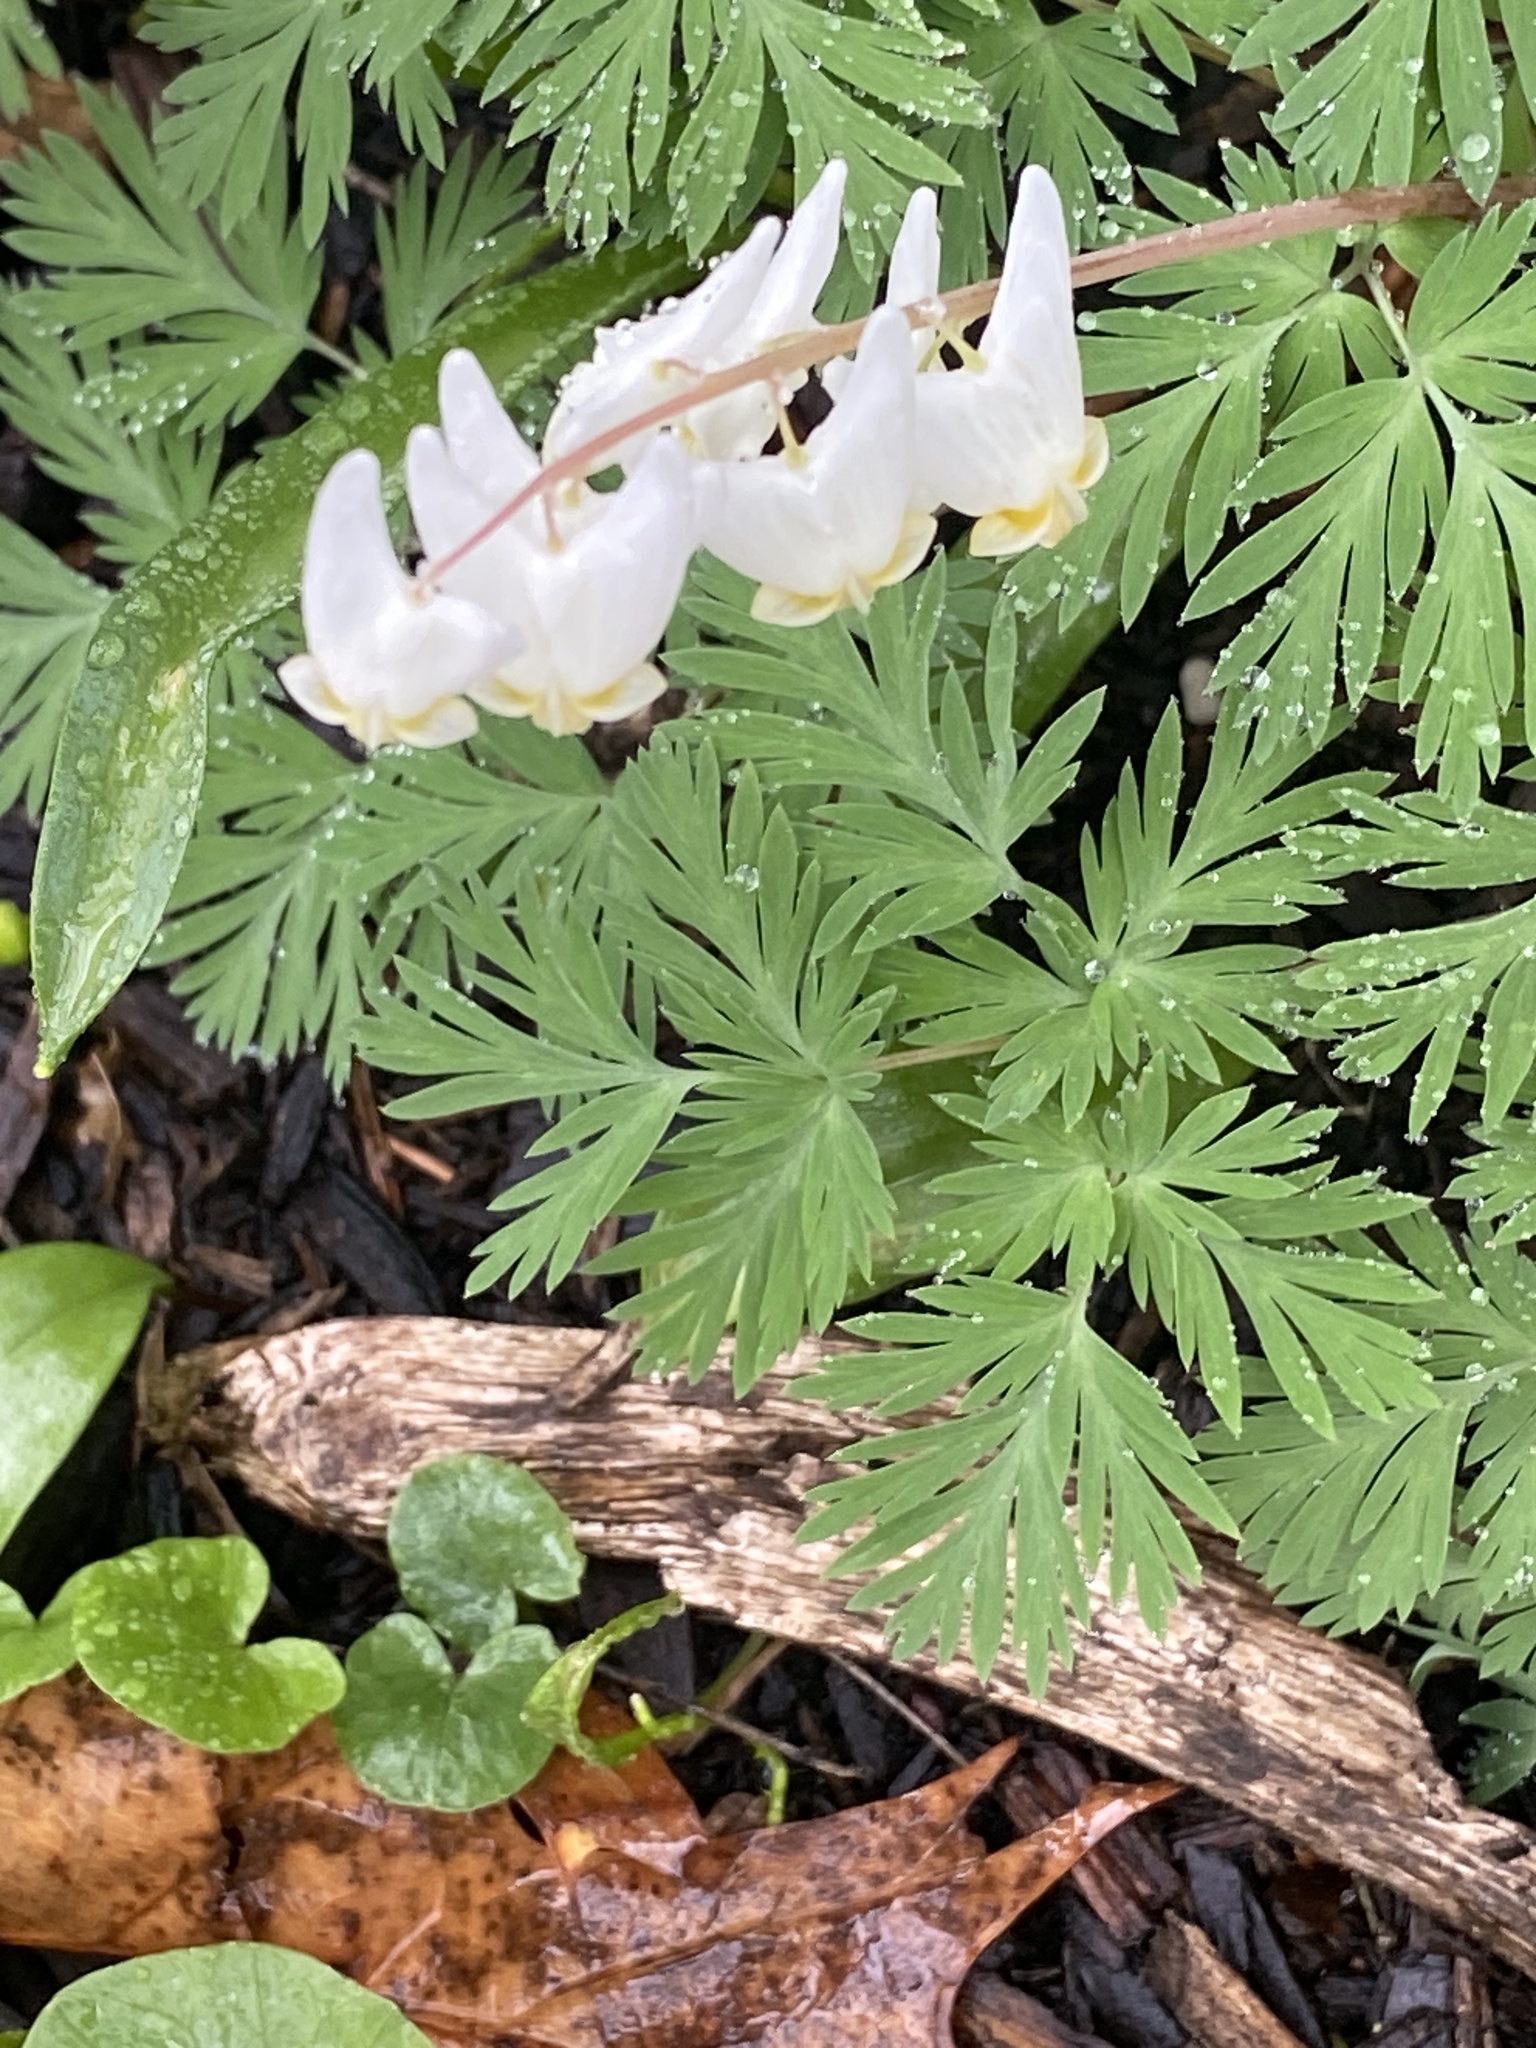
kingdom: Plantae
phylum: Tracheophyta
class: Magnoliopsida
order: Ranunculales
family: Papaveraceae
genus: Dicentra
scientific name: Dicentra cucullaria
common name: Dutchman's breeches
